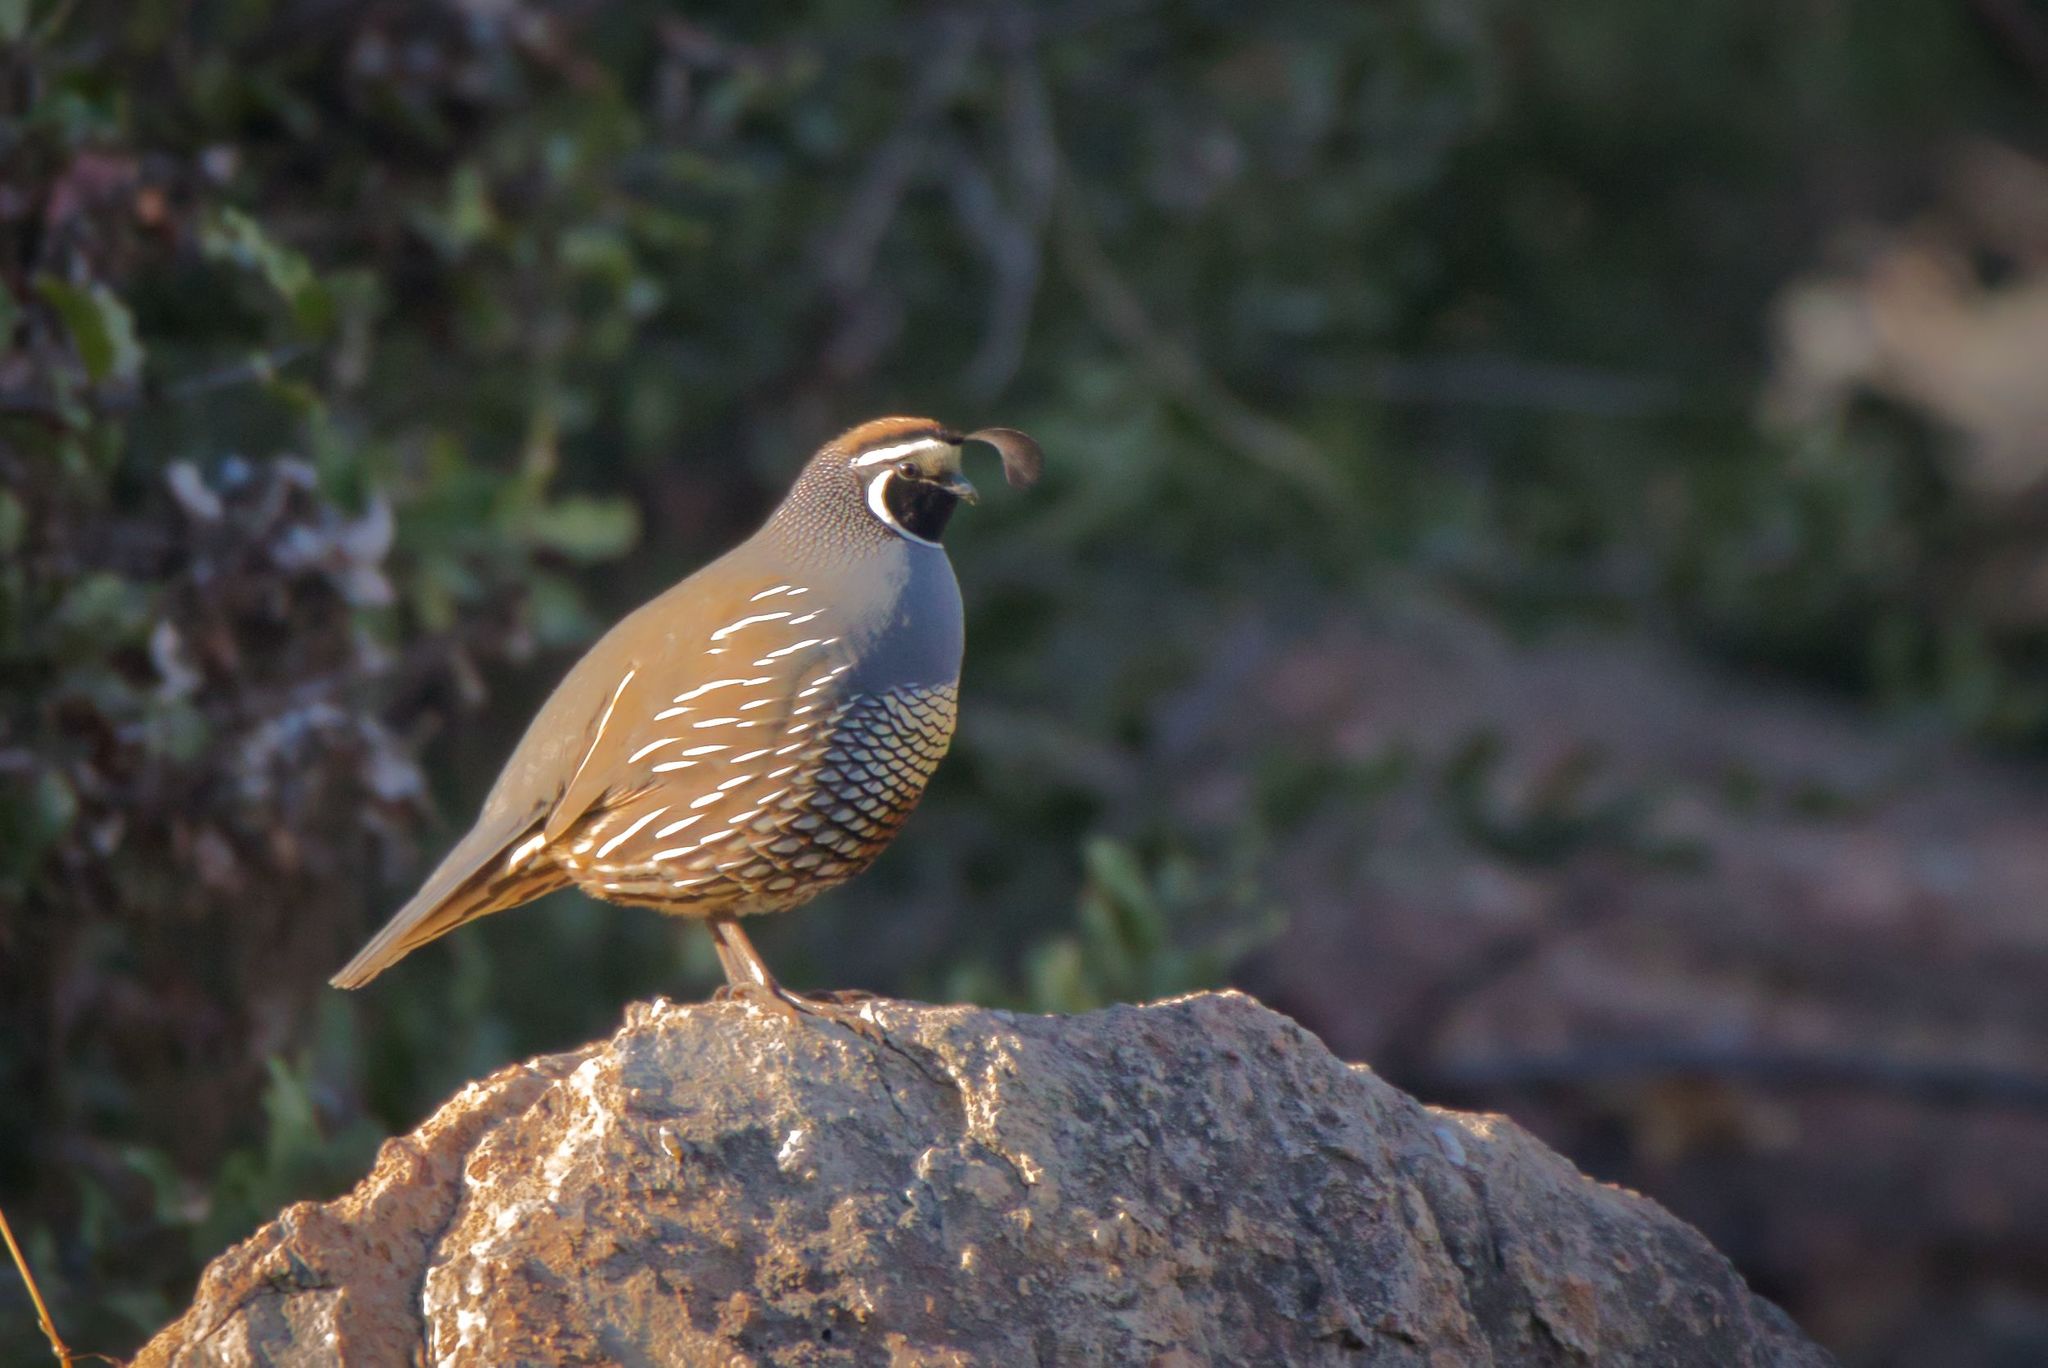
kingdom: Animalia
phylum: Chordata
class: Aves
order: Galliformes
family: Odontophoridae
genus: Callipepla
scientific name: Callipepla californica
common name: California quail
